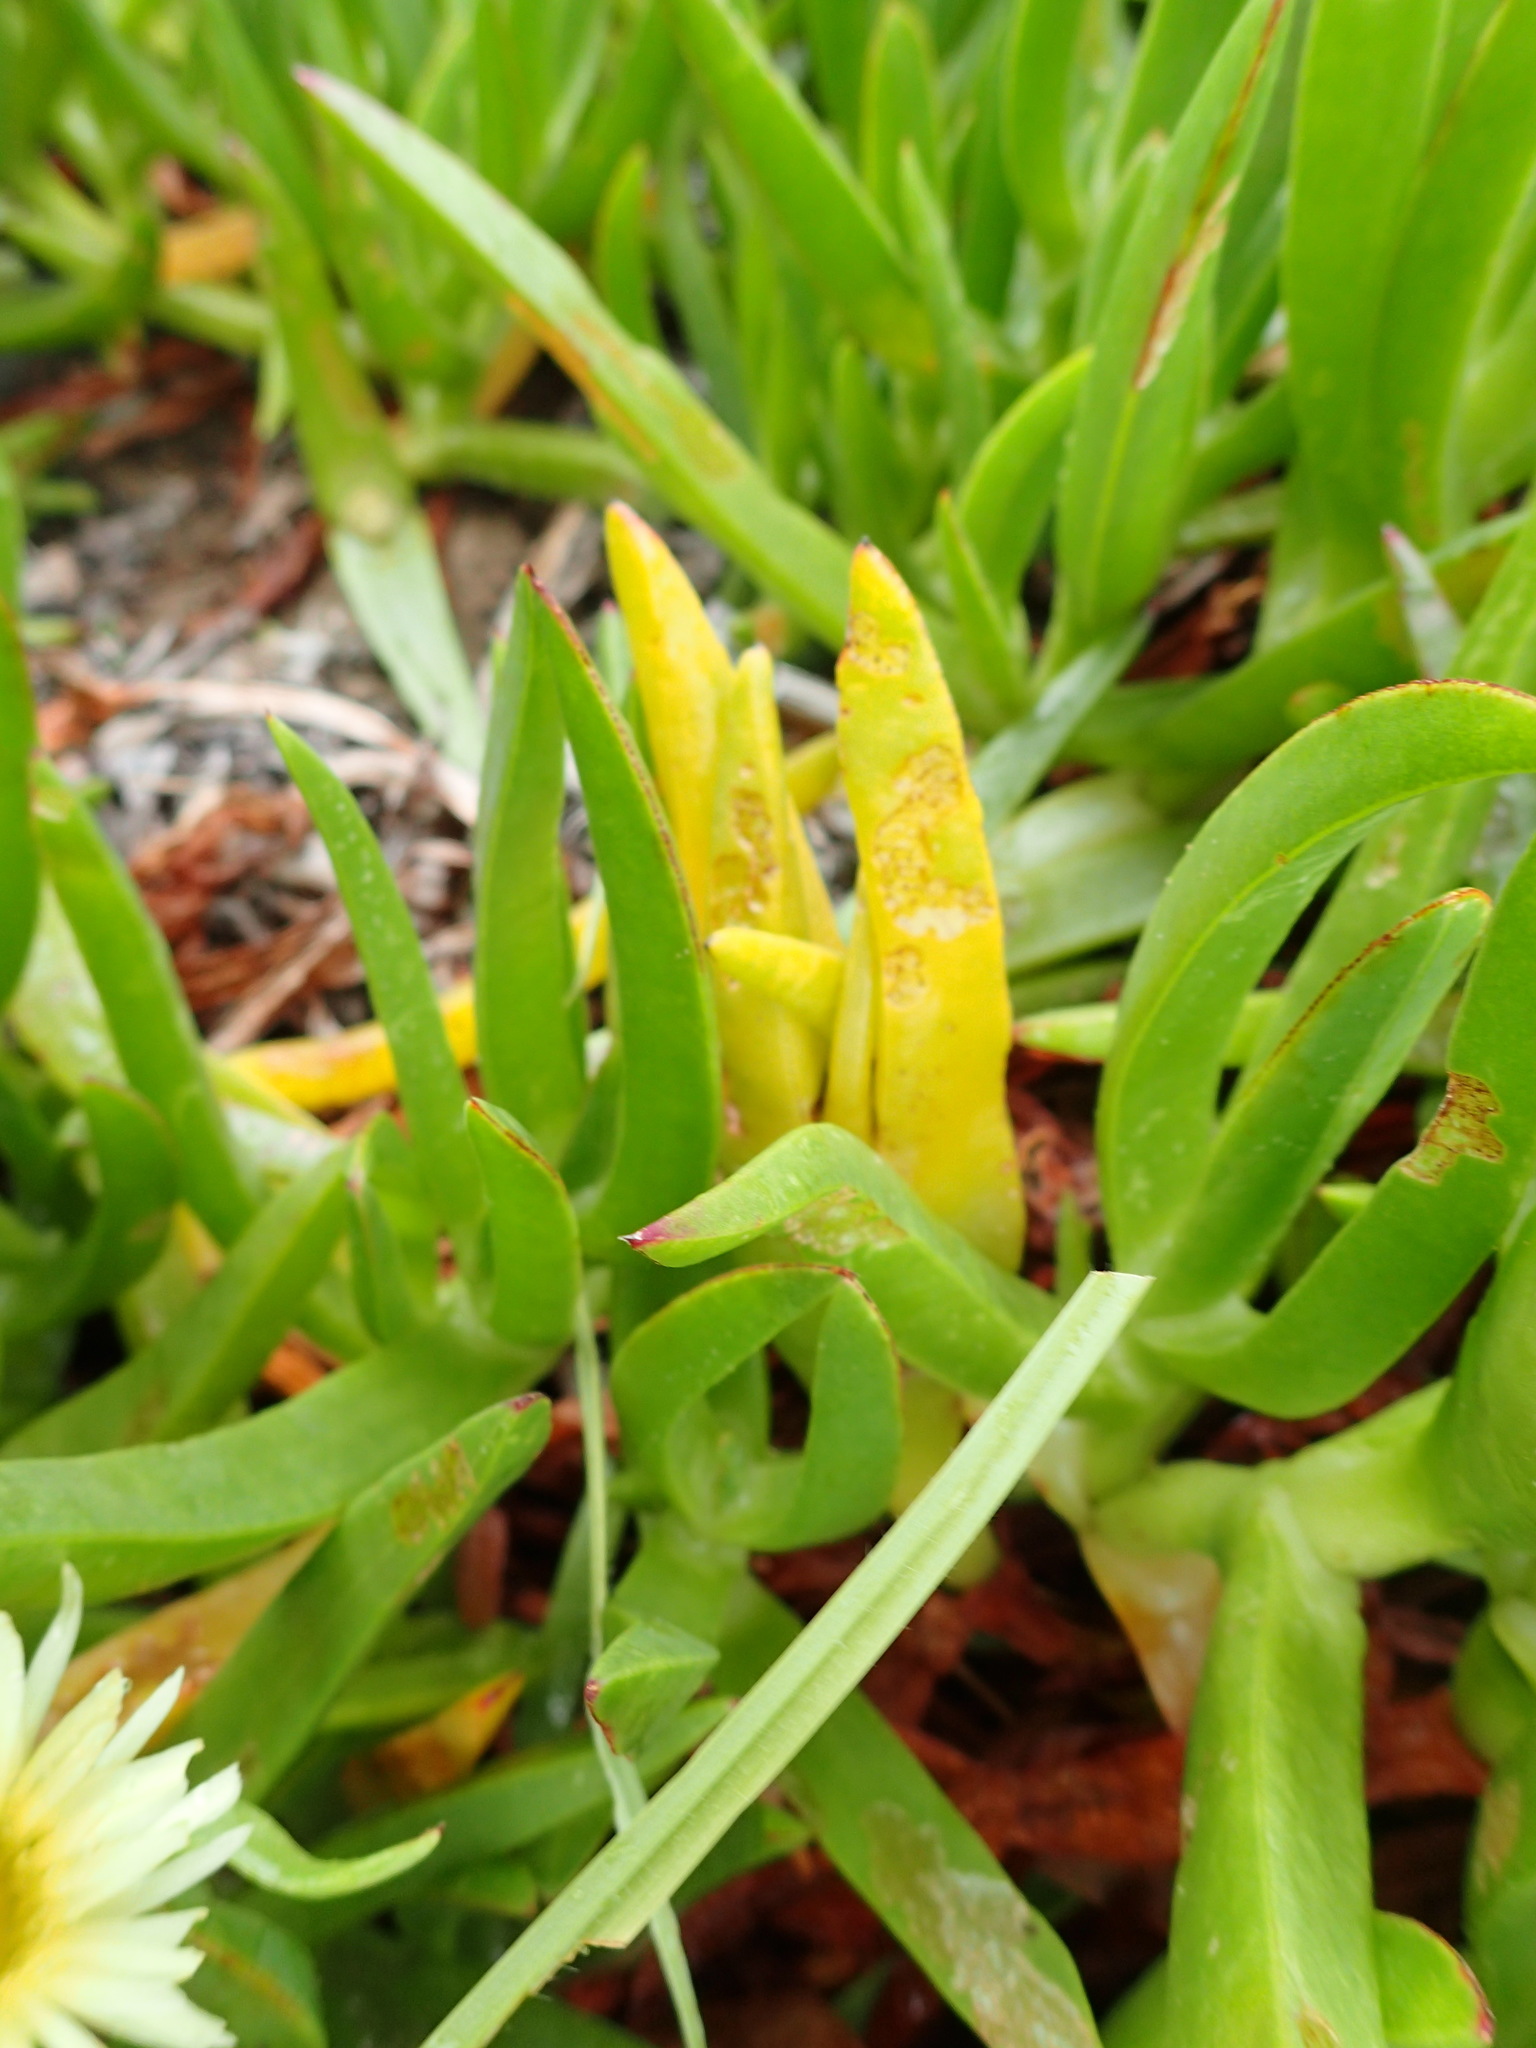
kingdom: Plantae
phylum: Tracheophyta
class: Magnoliopsida
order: Caryophyllales
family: Aizoaceae
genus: Carpobrotus
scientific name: Carpobrotus edulis
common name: Hottentot-fig
